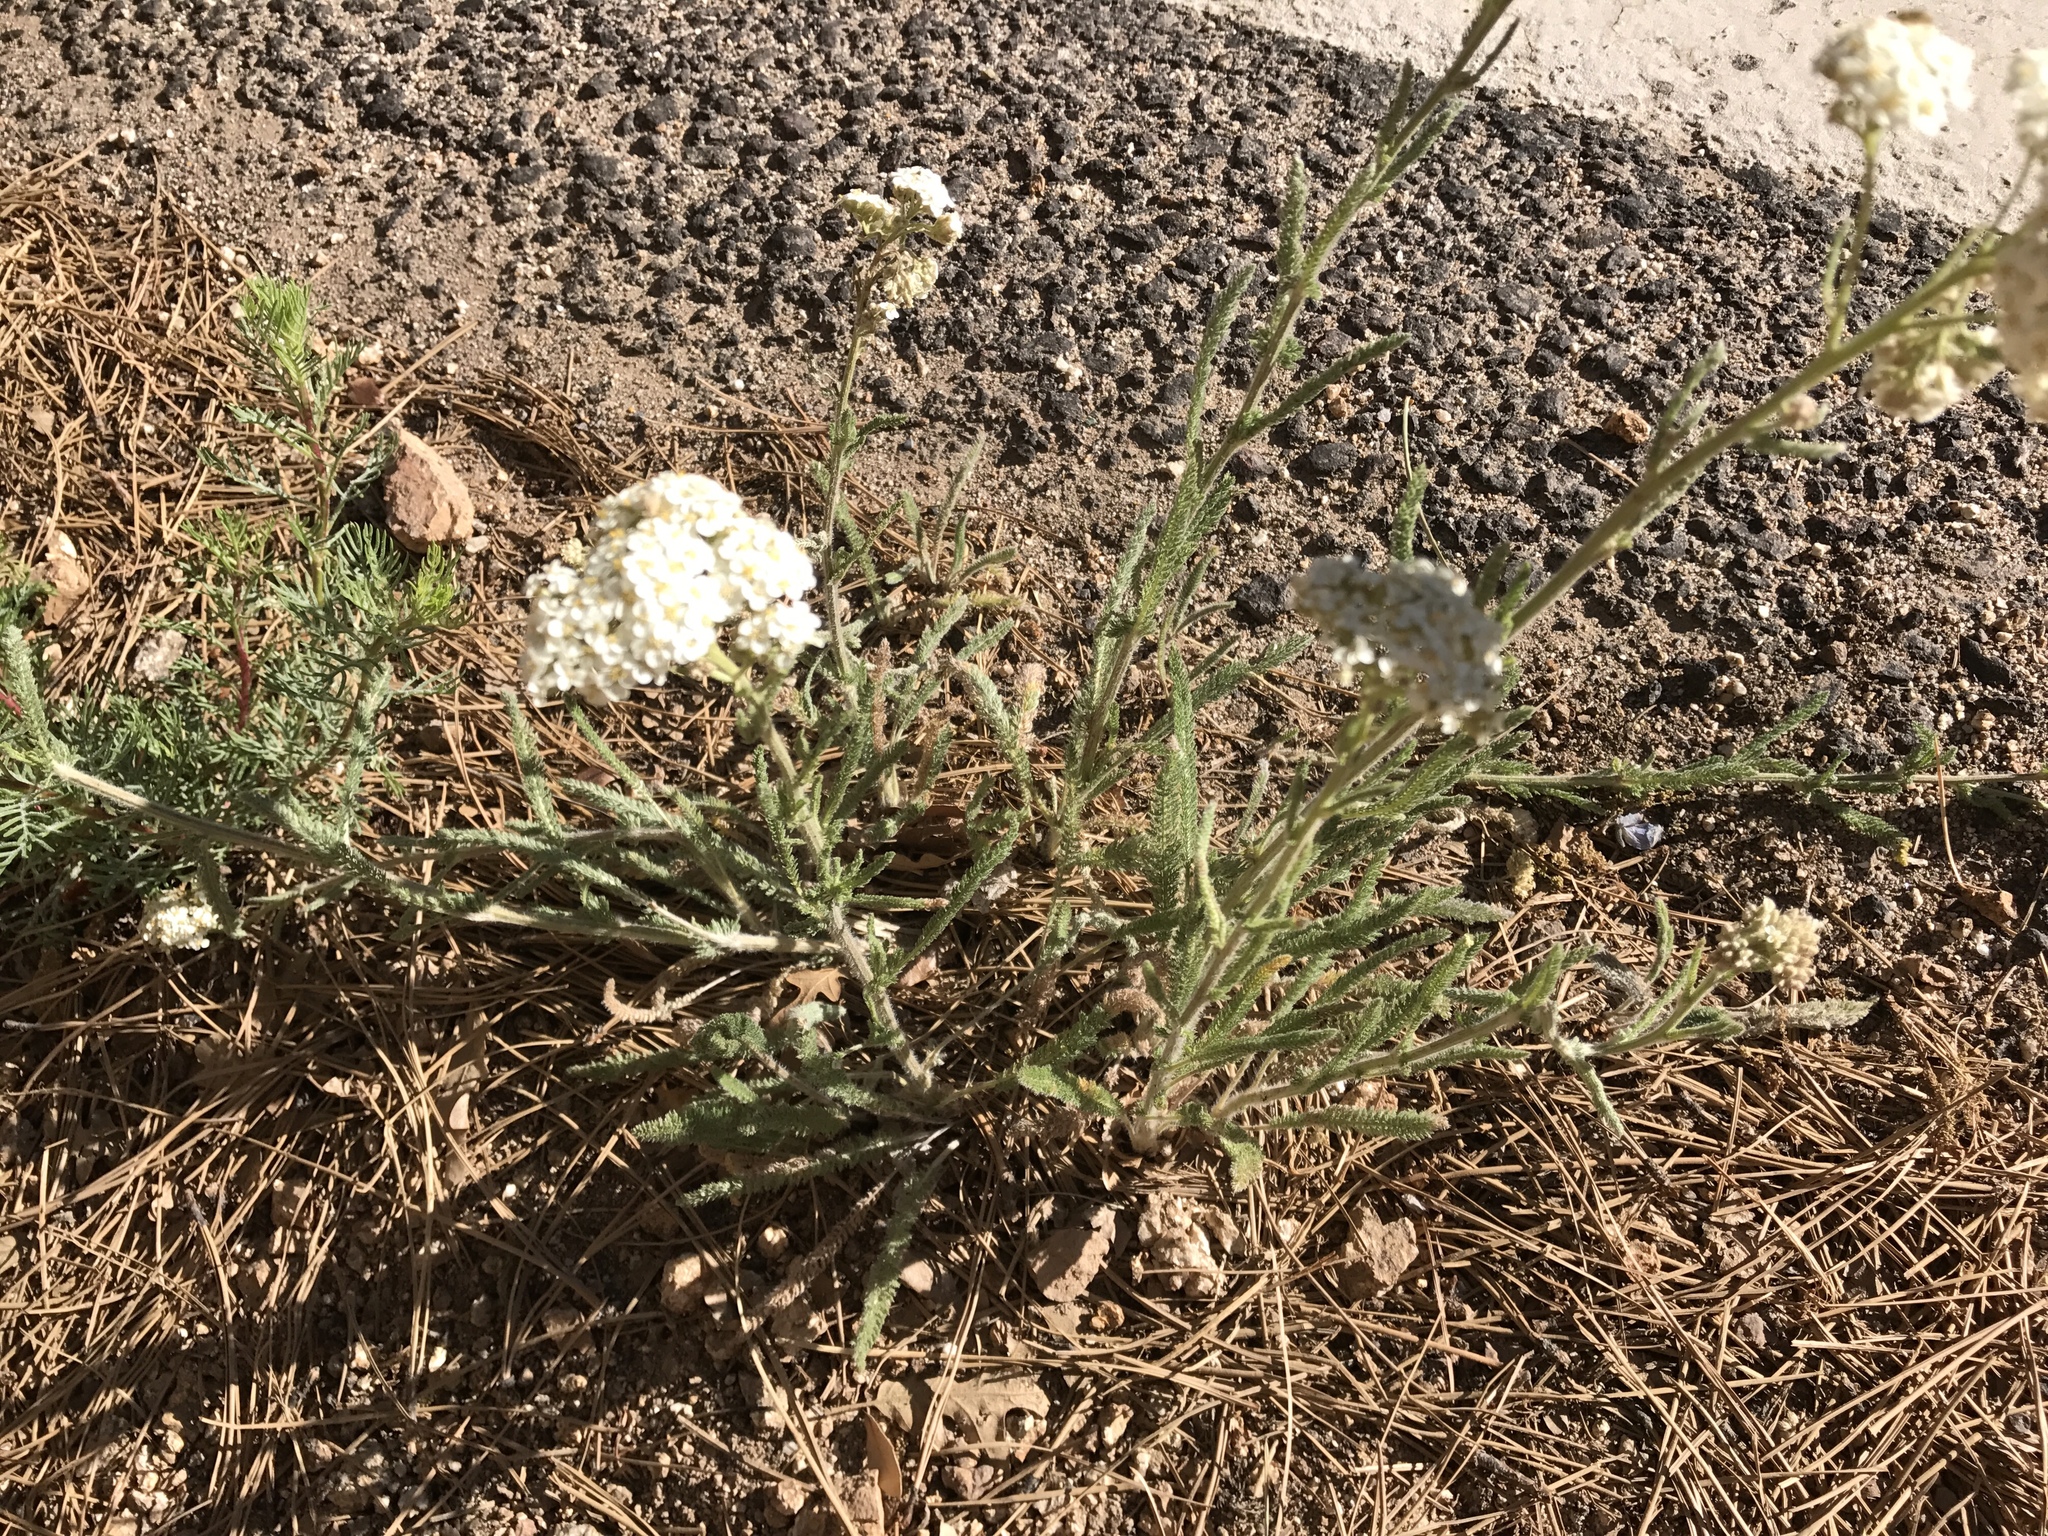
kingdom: Plantae
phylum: Tracheophyta
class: Magnoliopsida
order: Asterales
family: Asteraceae
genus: Achillea
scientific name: Achillea millefolium
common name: Yarrow
